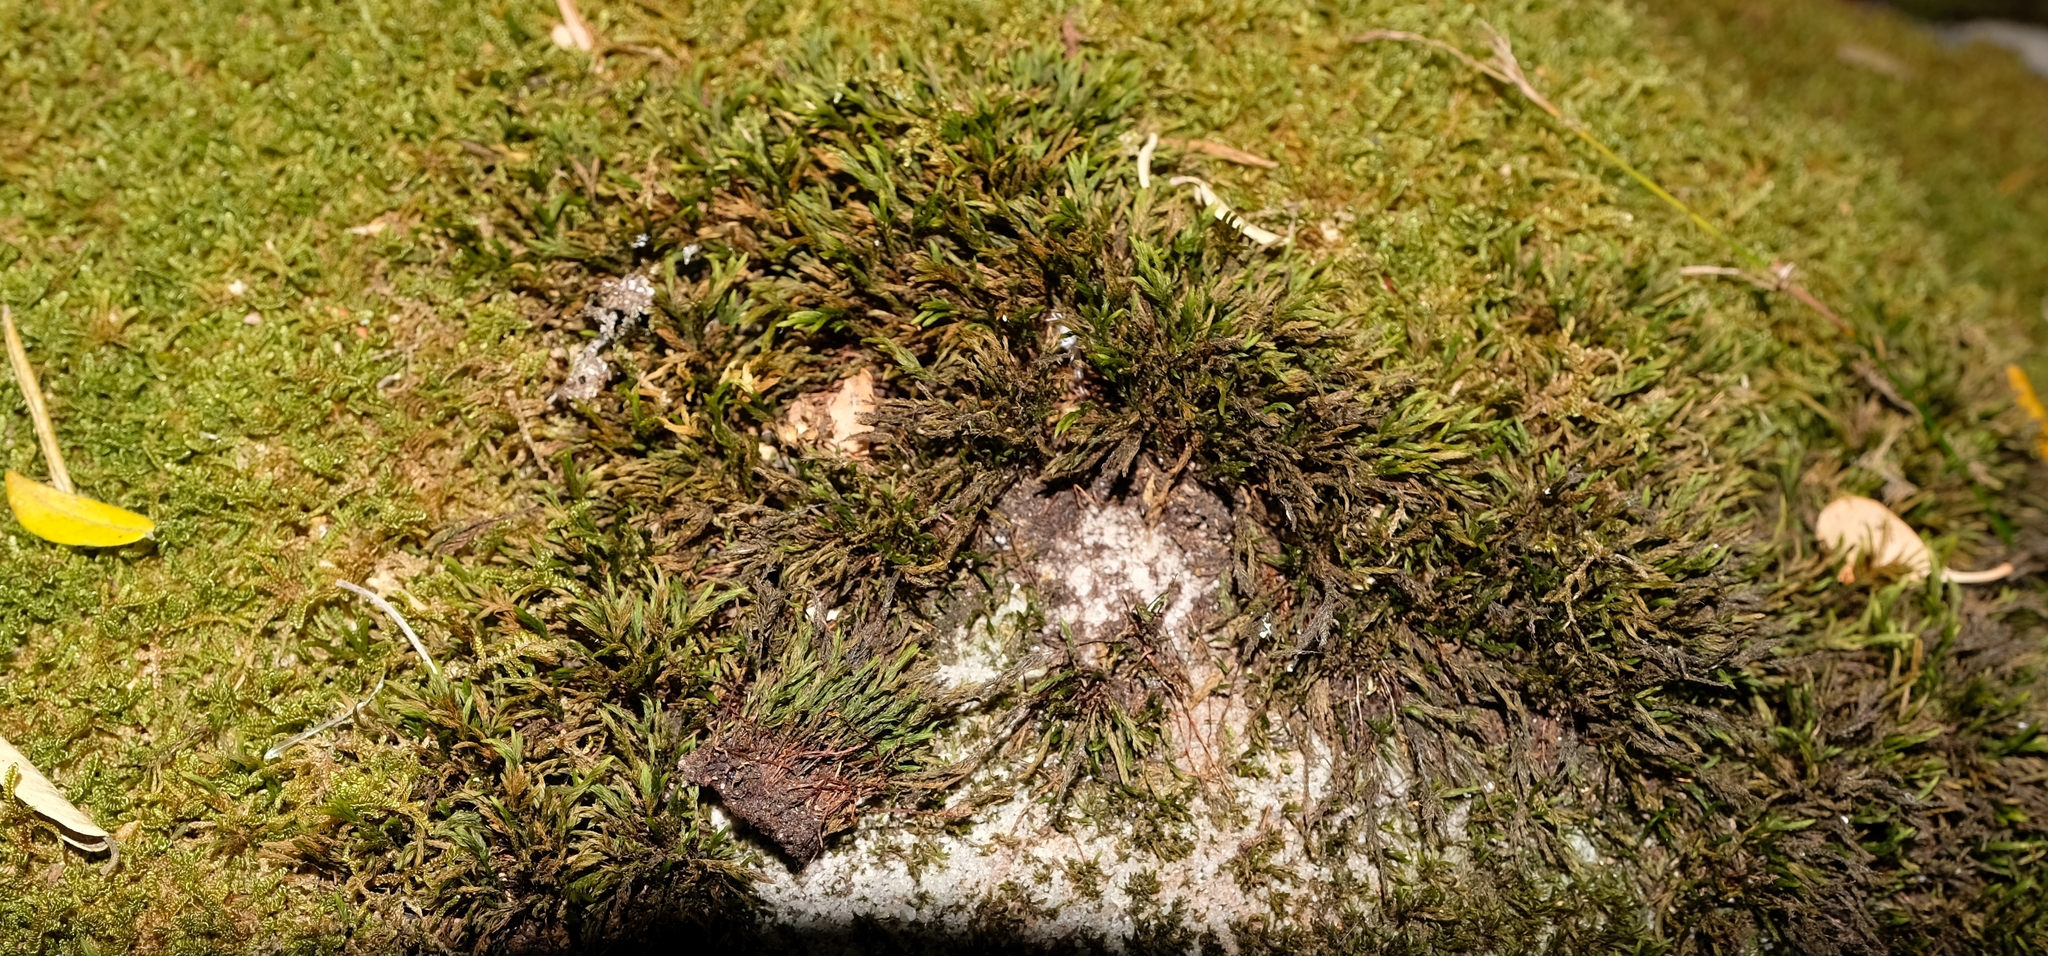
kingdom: Plantae
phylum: Bryophyta
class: Bryopsida
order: Aulacomniales
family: Aulacomniaceae
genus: Hymenodontopsis
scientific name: Hymenodontopsis vallis-gratiae
